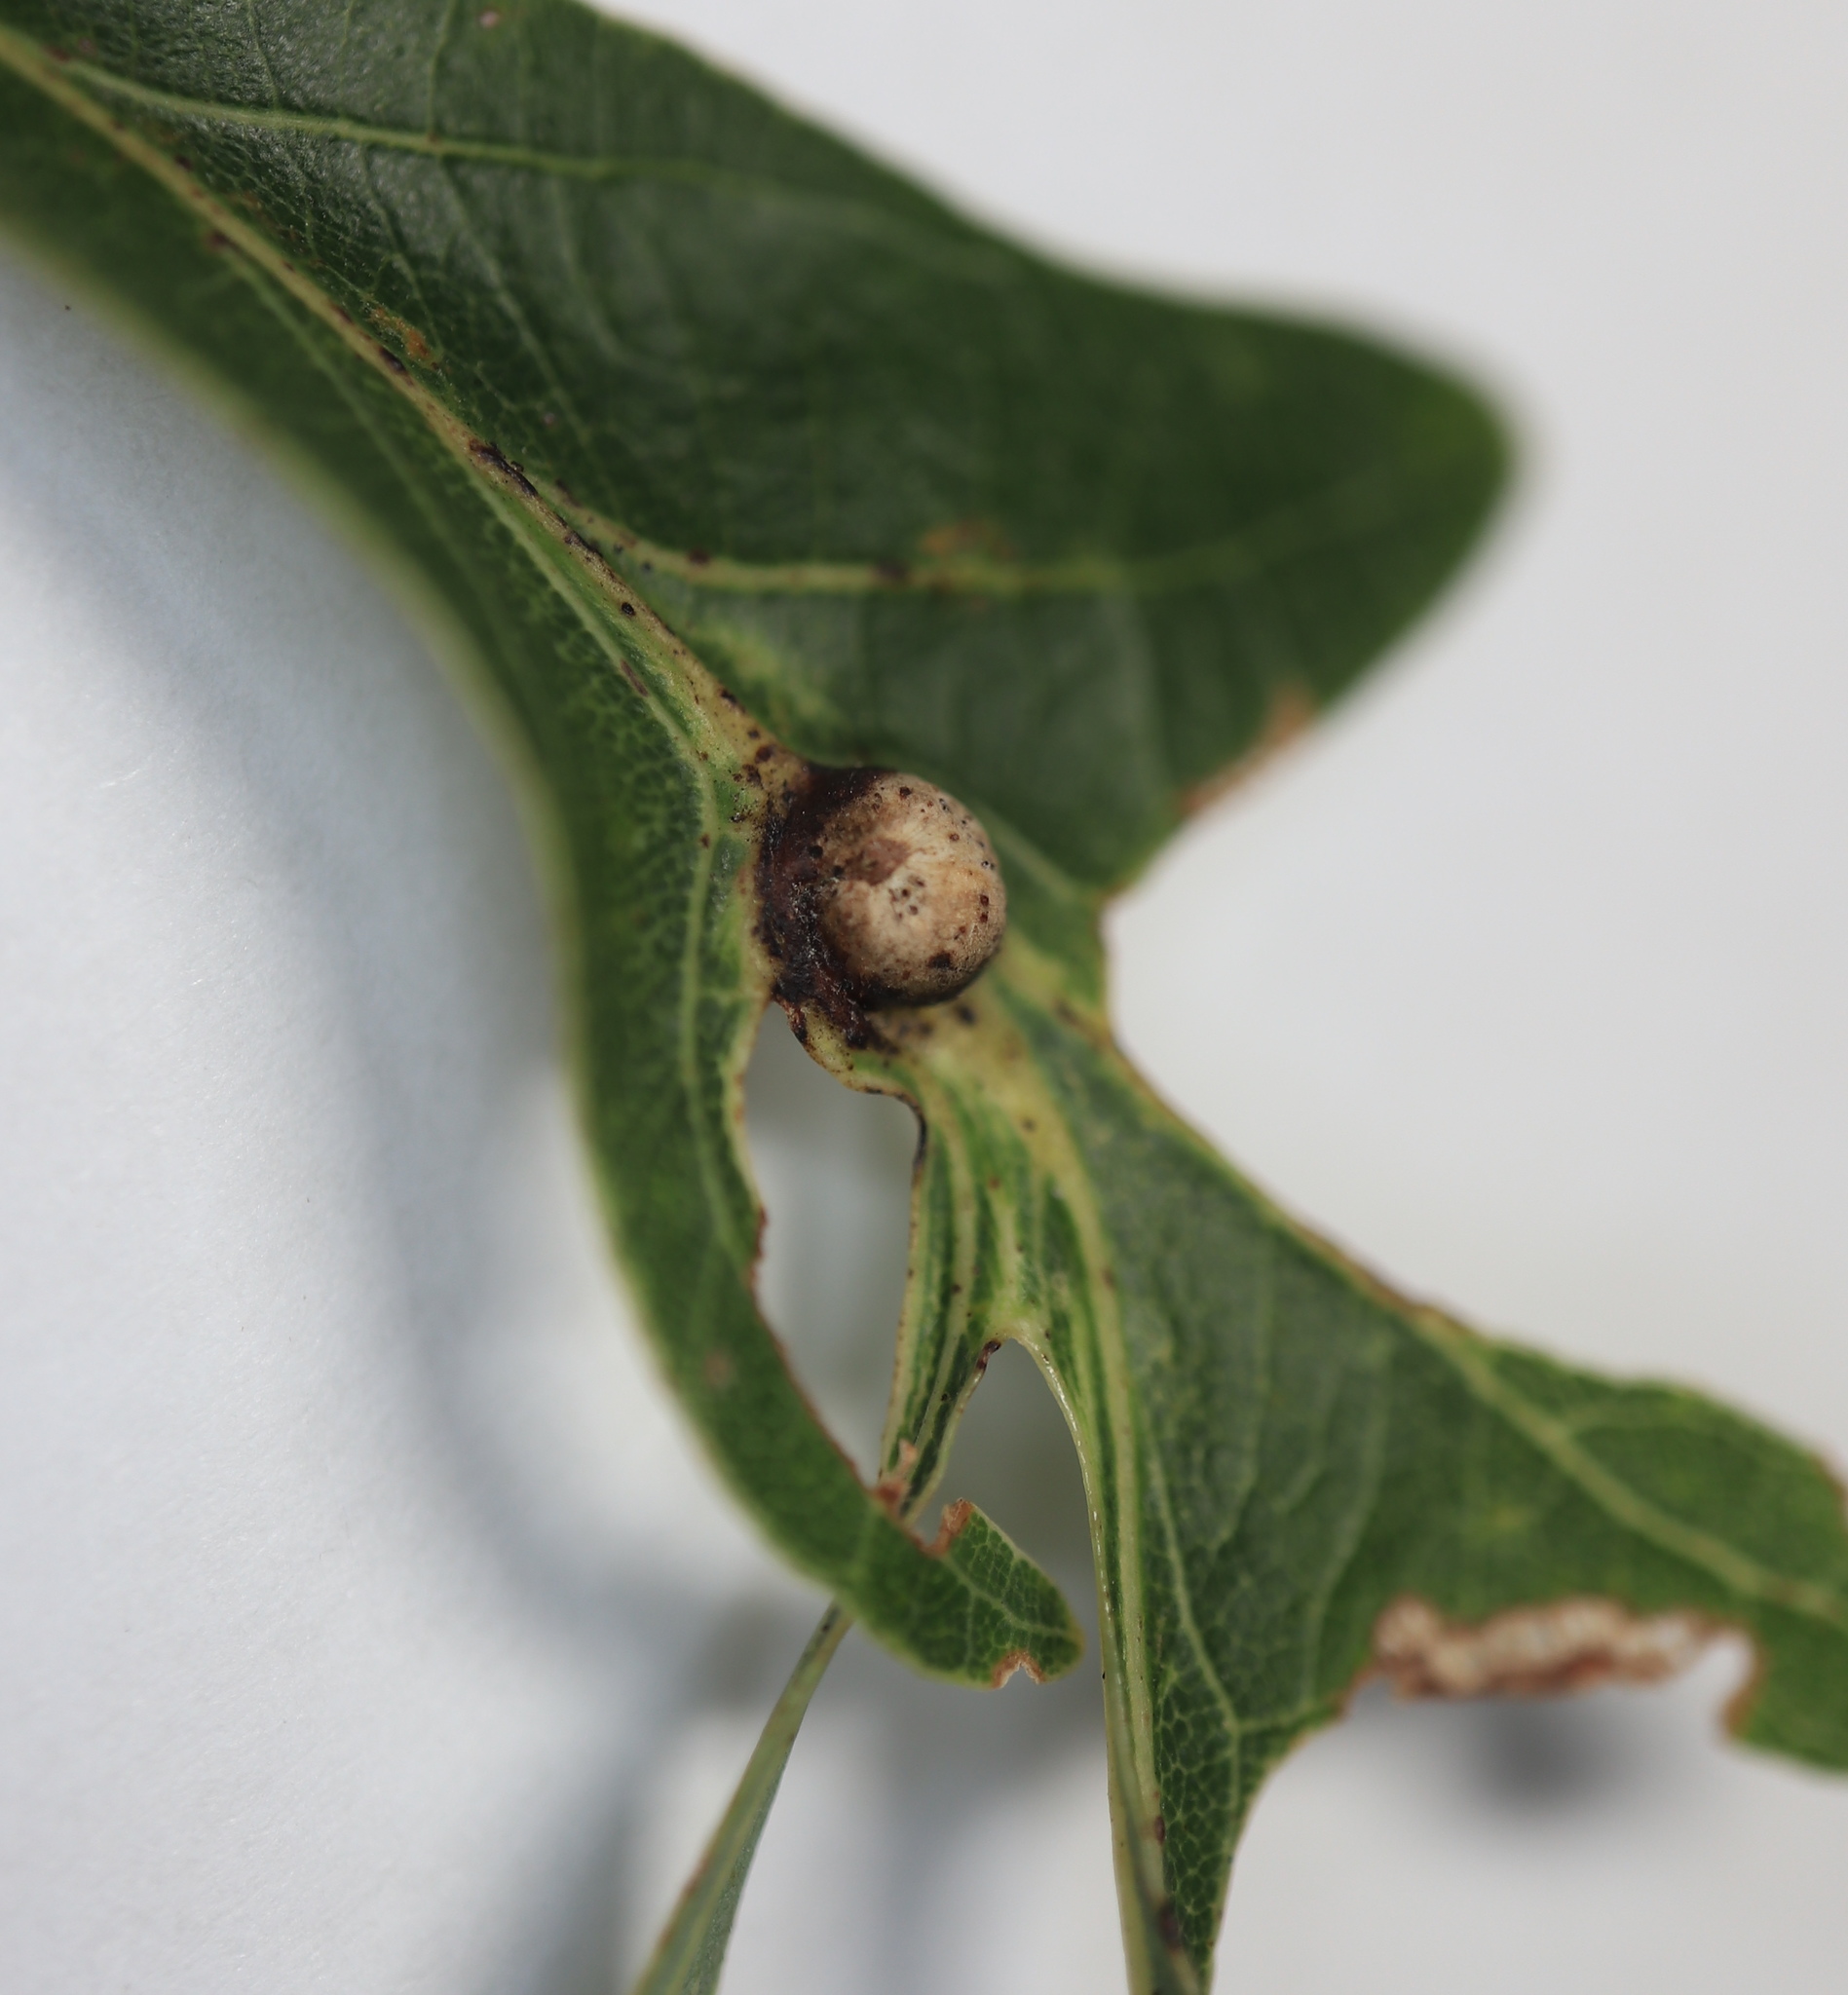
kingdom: Animalia
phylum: Arthropoda
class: Insecta
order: Hymenoptera
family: Cynipidae
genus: Andricus
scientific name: Andricus
